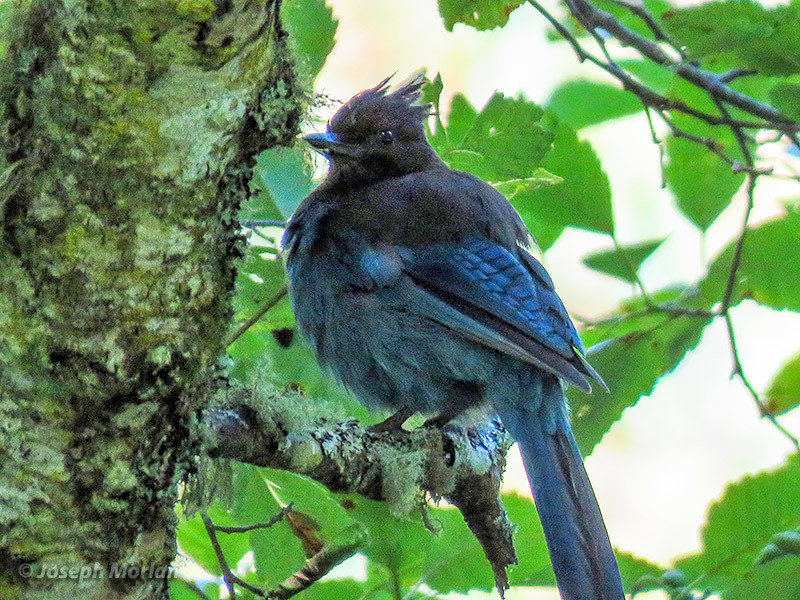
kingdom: Animalia
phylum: Chordata
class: Aves
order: Passeriformes
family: Corvidae
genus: Cyanocitta
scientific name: Cyanocitta stelleri
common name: Steller's jay
